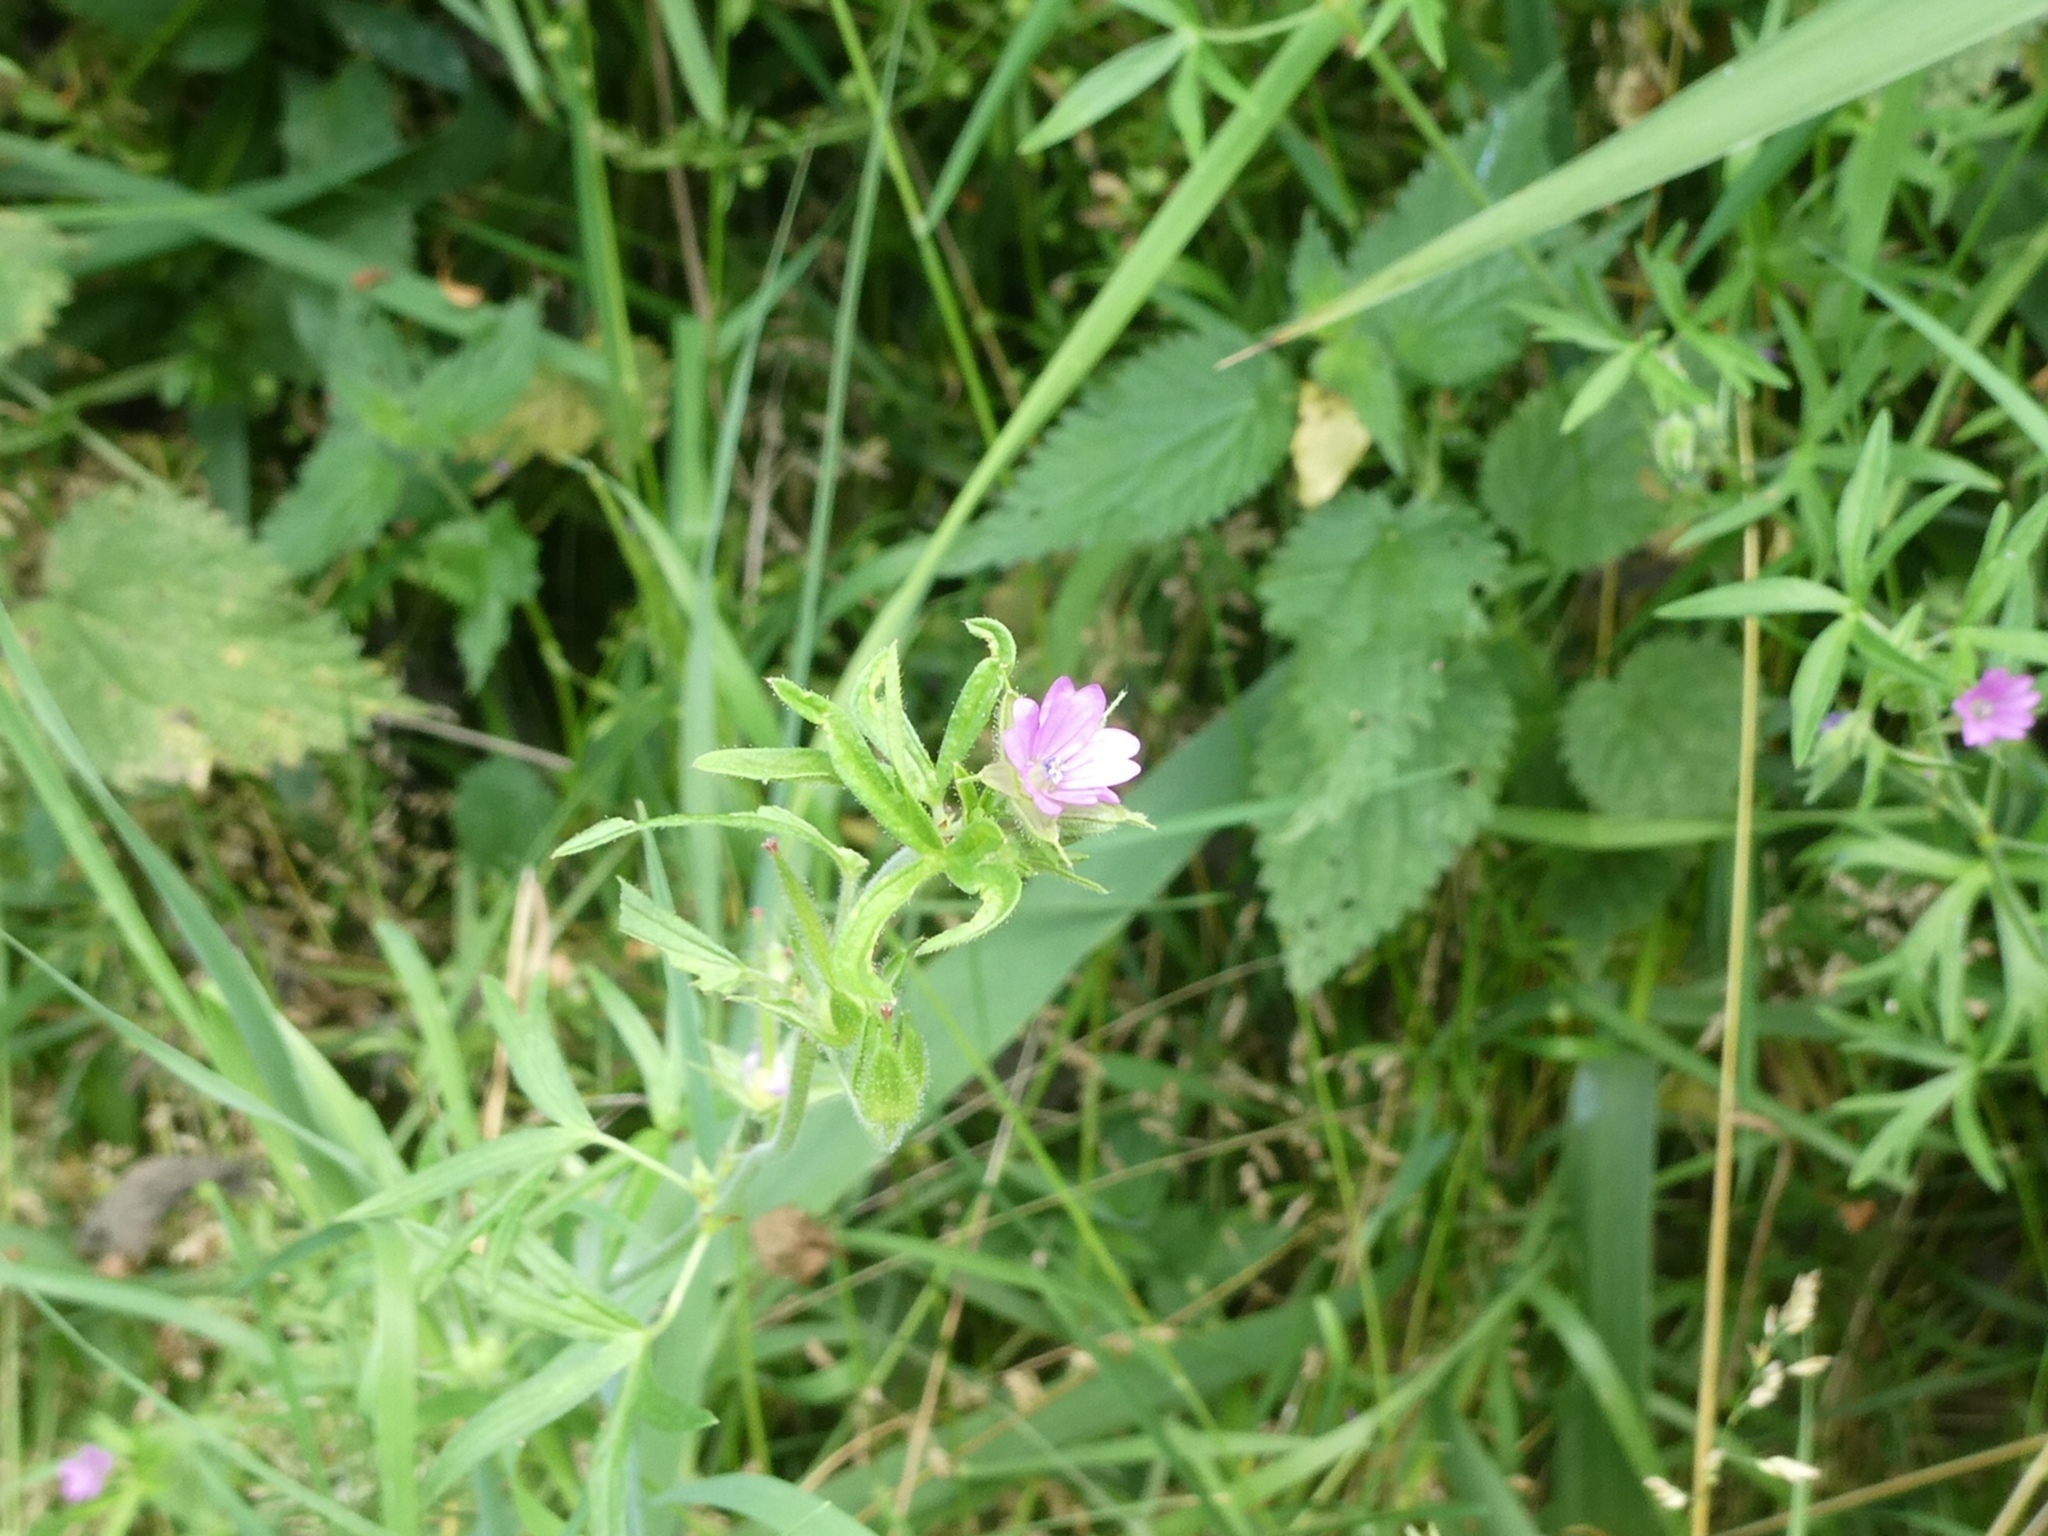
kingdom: Plantae
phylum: Tracheophyta
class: Magnoliopsida
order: Geraniales
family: Geraniaceae
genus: Geranium
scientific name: Geranium dissectum
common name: Cut-leaved crane's-bill
